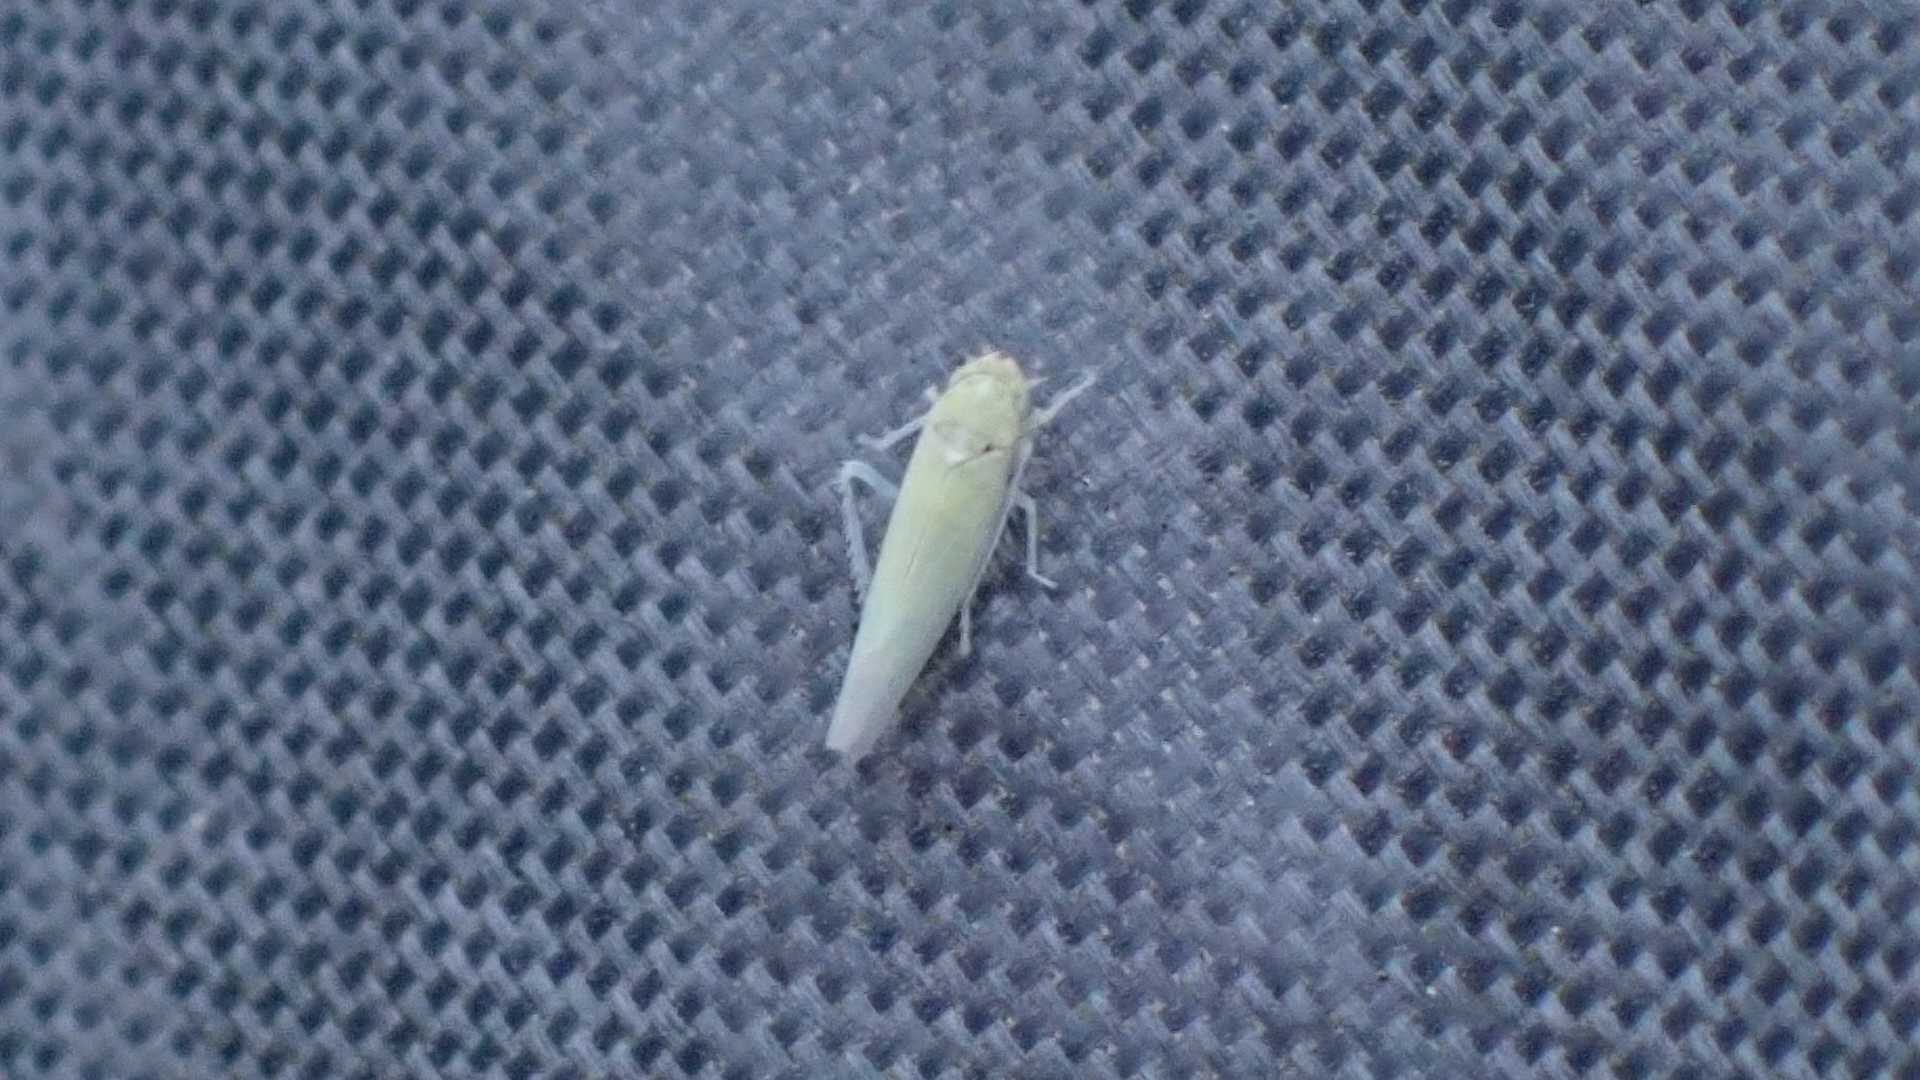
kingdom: Animalia
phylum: Arthropoda
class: Insecta
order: Hemiptera
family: Cicadellidae
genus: Zygina
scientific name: Zygina nivea
